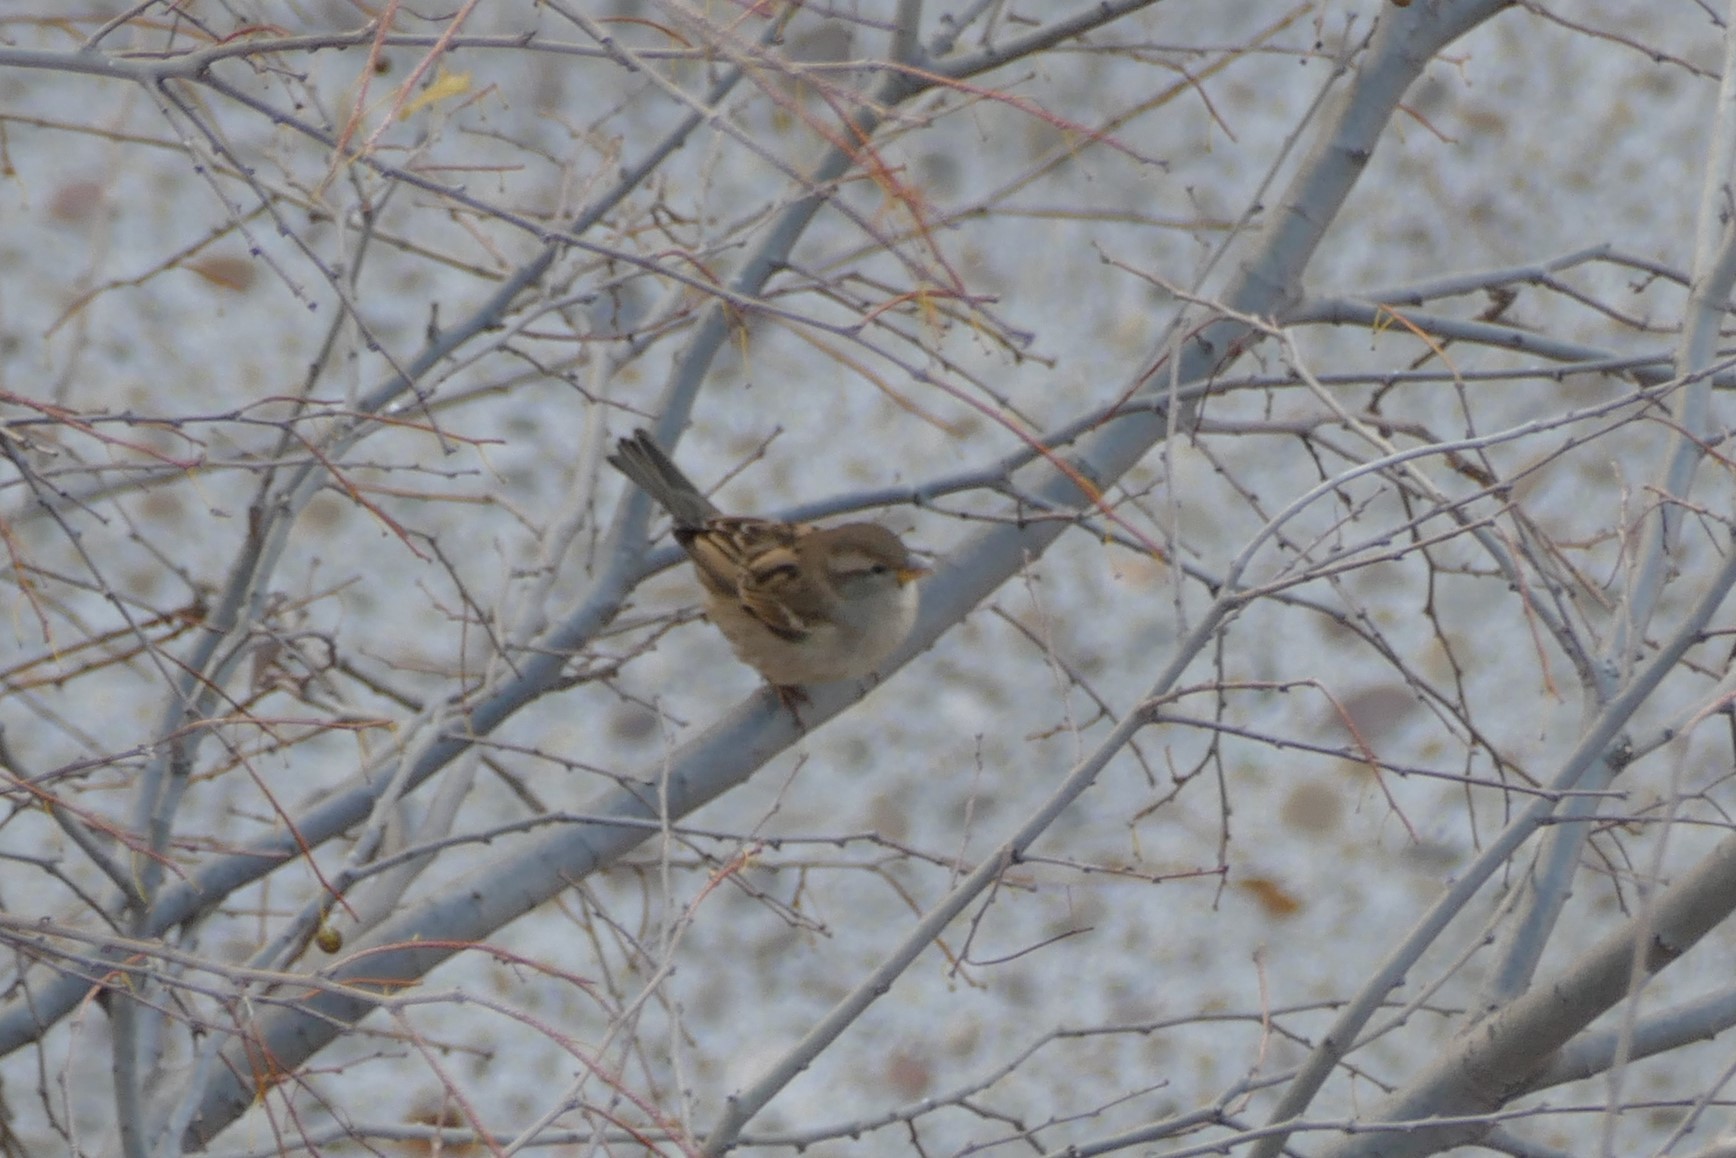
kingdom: Animalia
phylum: Chordata
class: Aves
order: Passeriformes
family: Passeridae
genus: Passer
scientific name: Passer domesticus
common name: House sparrow
